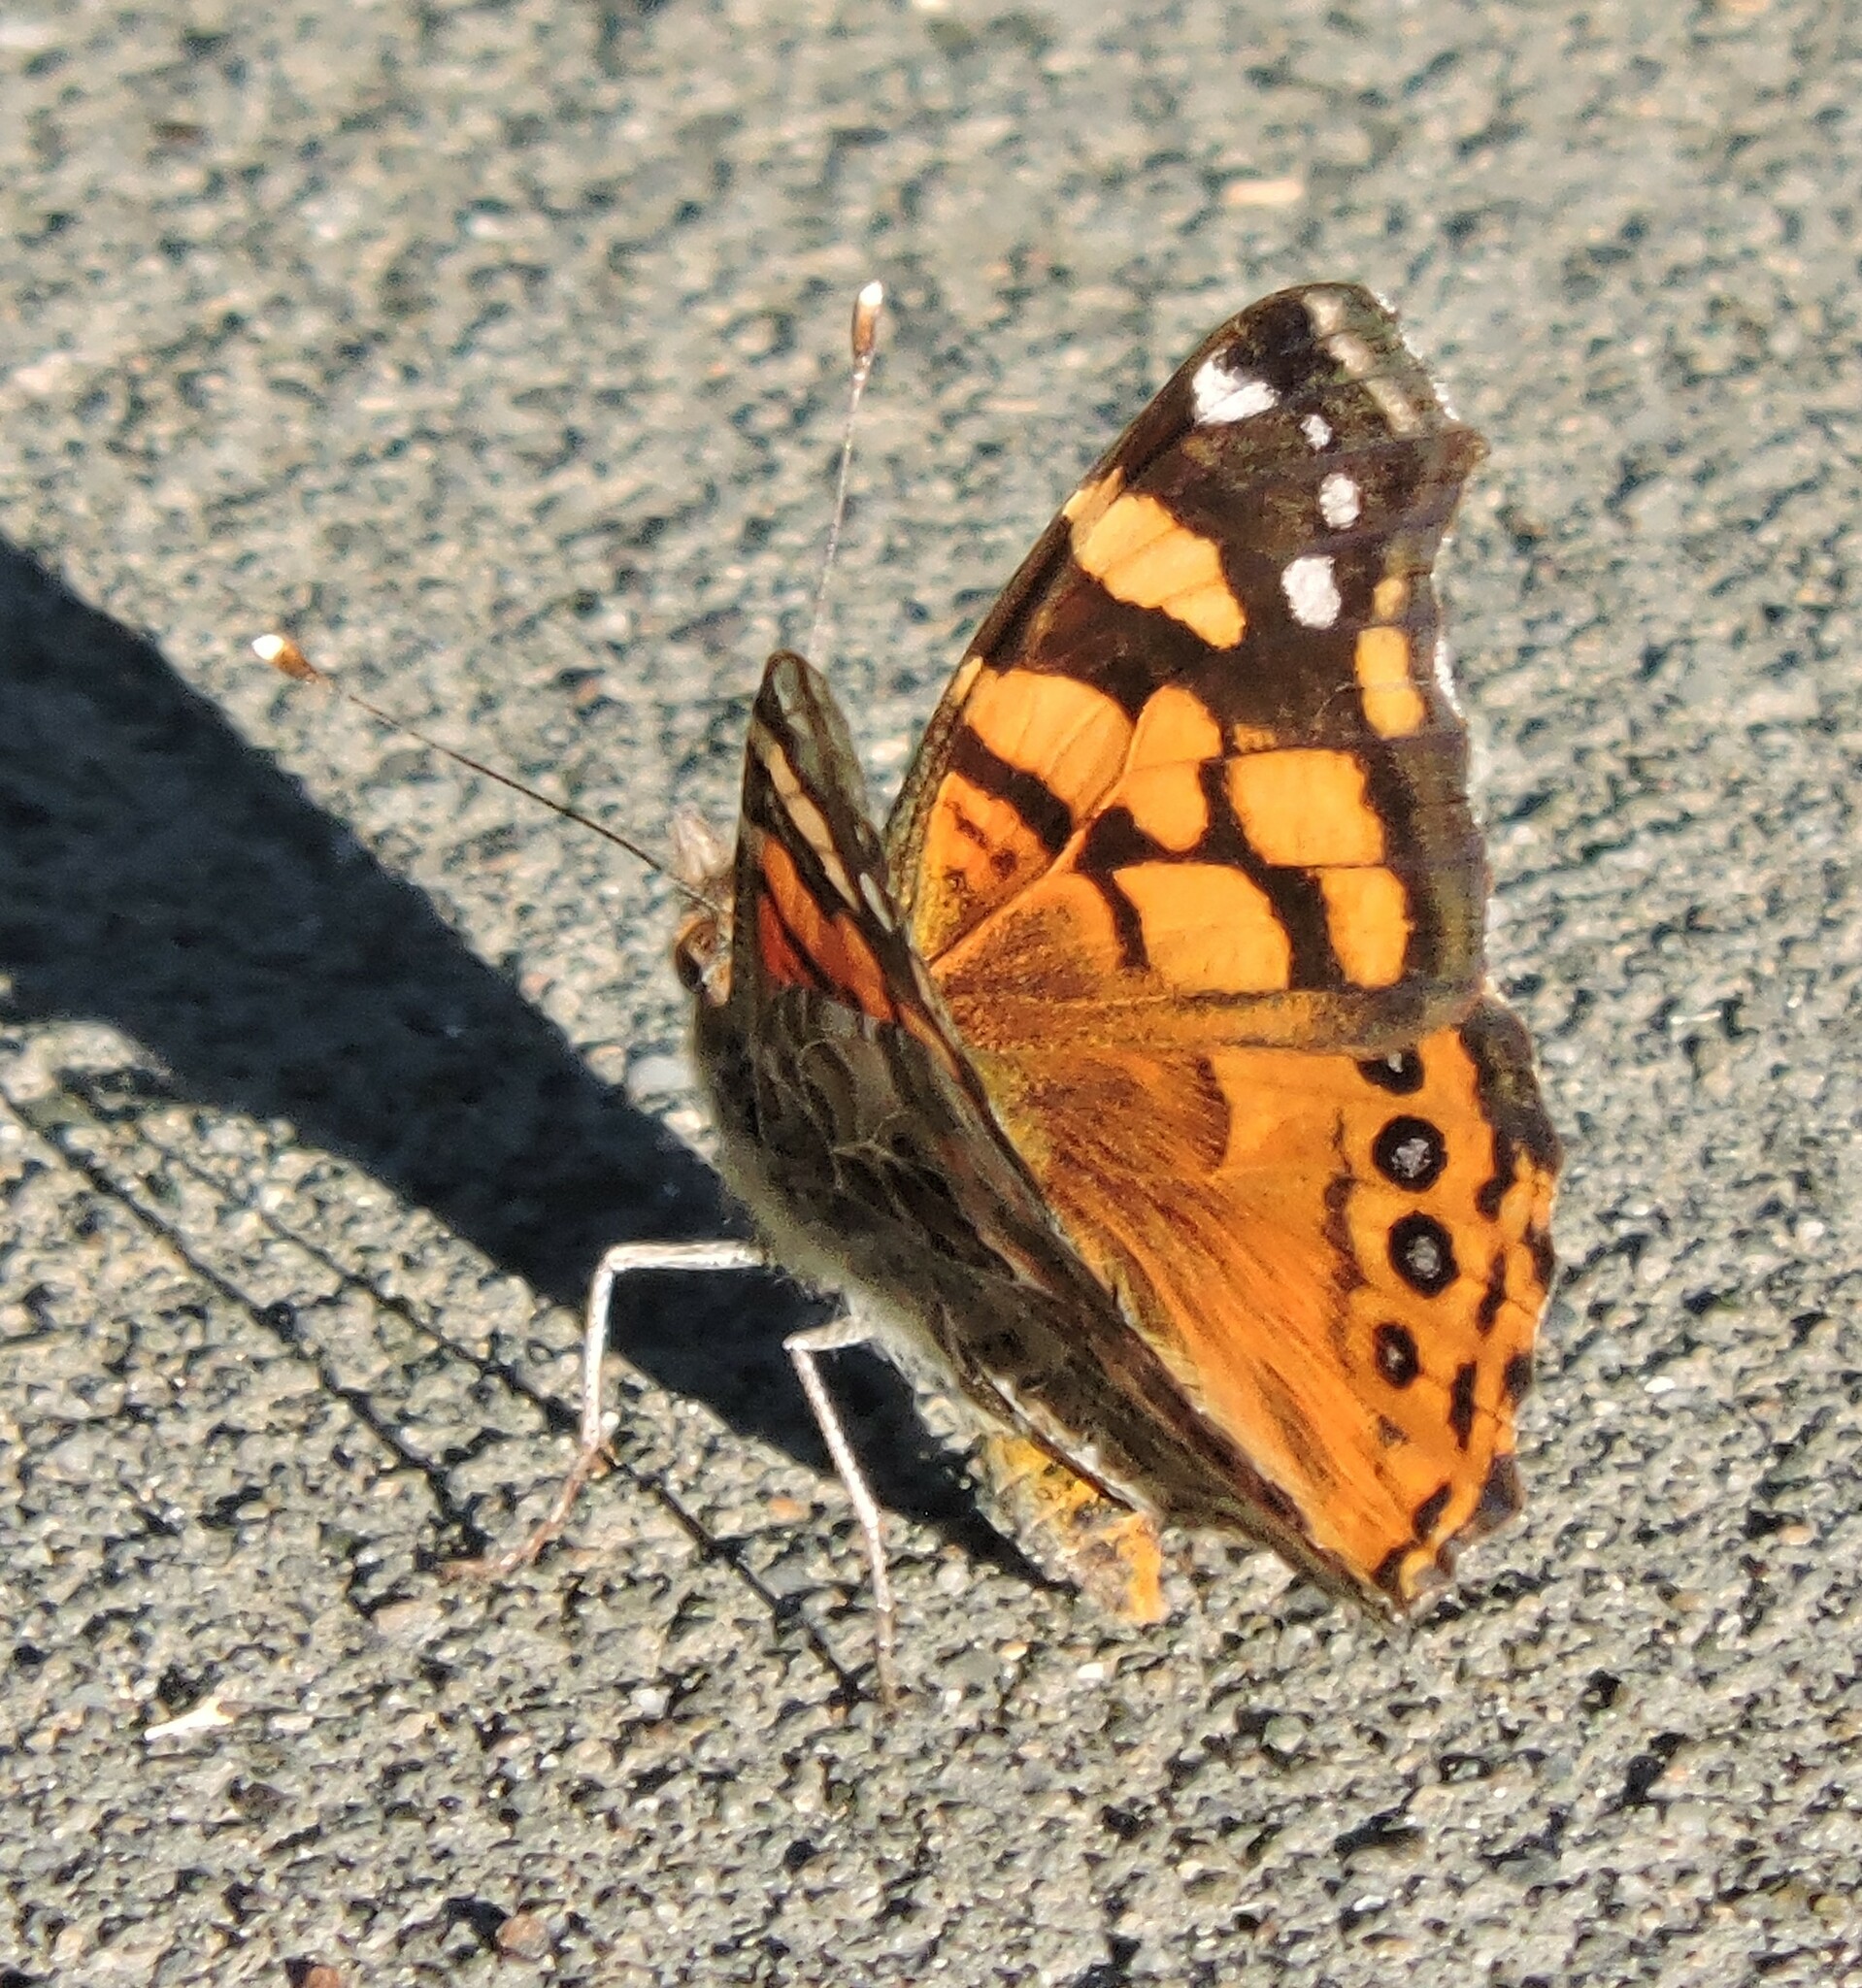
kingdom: Animalia
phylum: Arthropoda
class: Insecta
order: Lepidoptera
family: Nymphalidae
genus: Vanessa
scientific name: Vanessa annabella
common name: West coast lady
